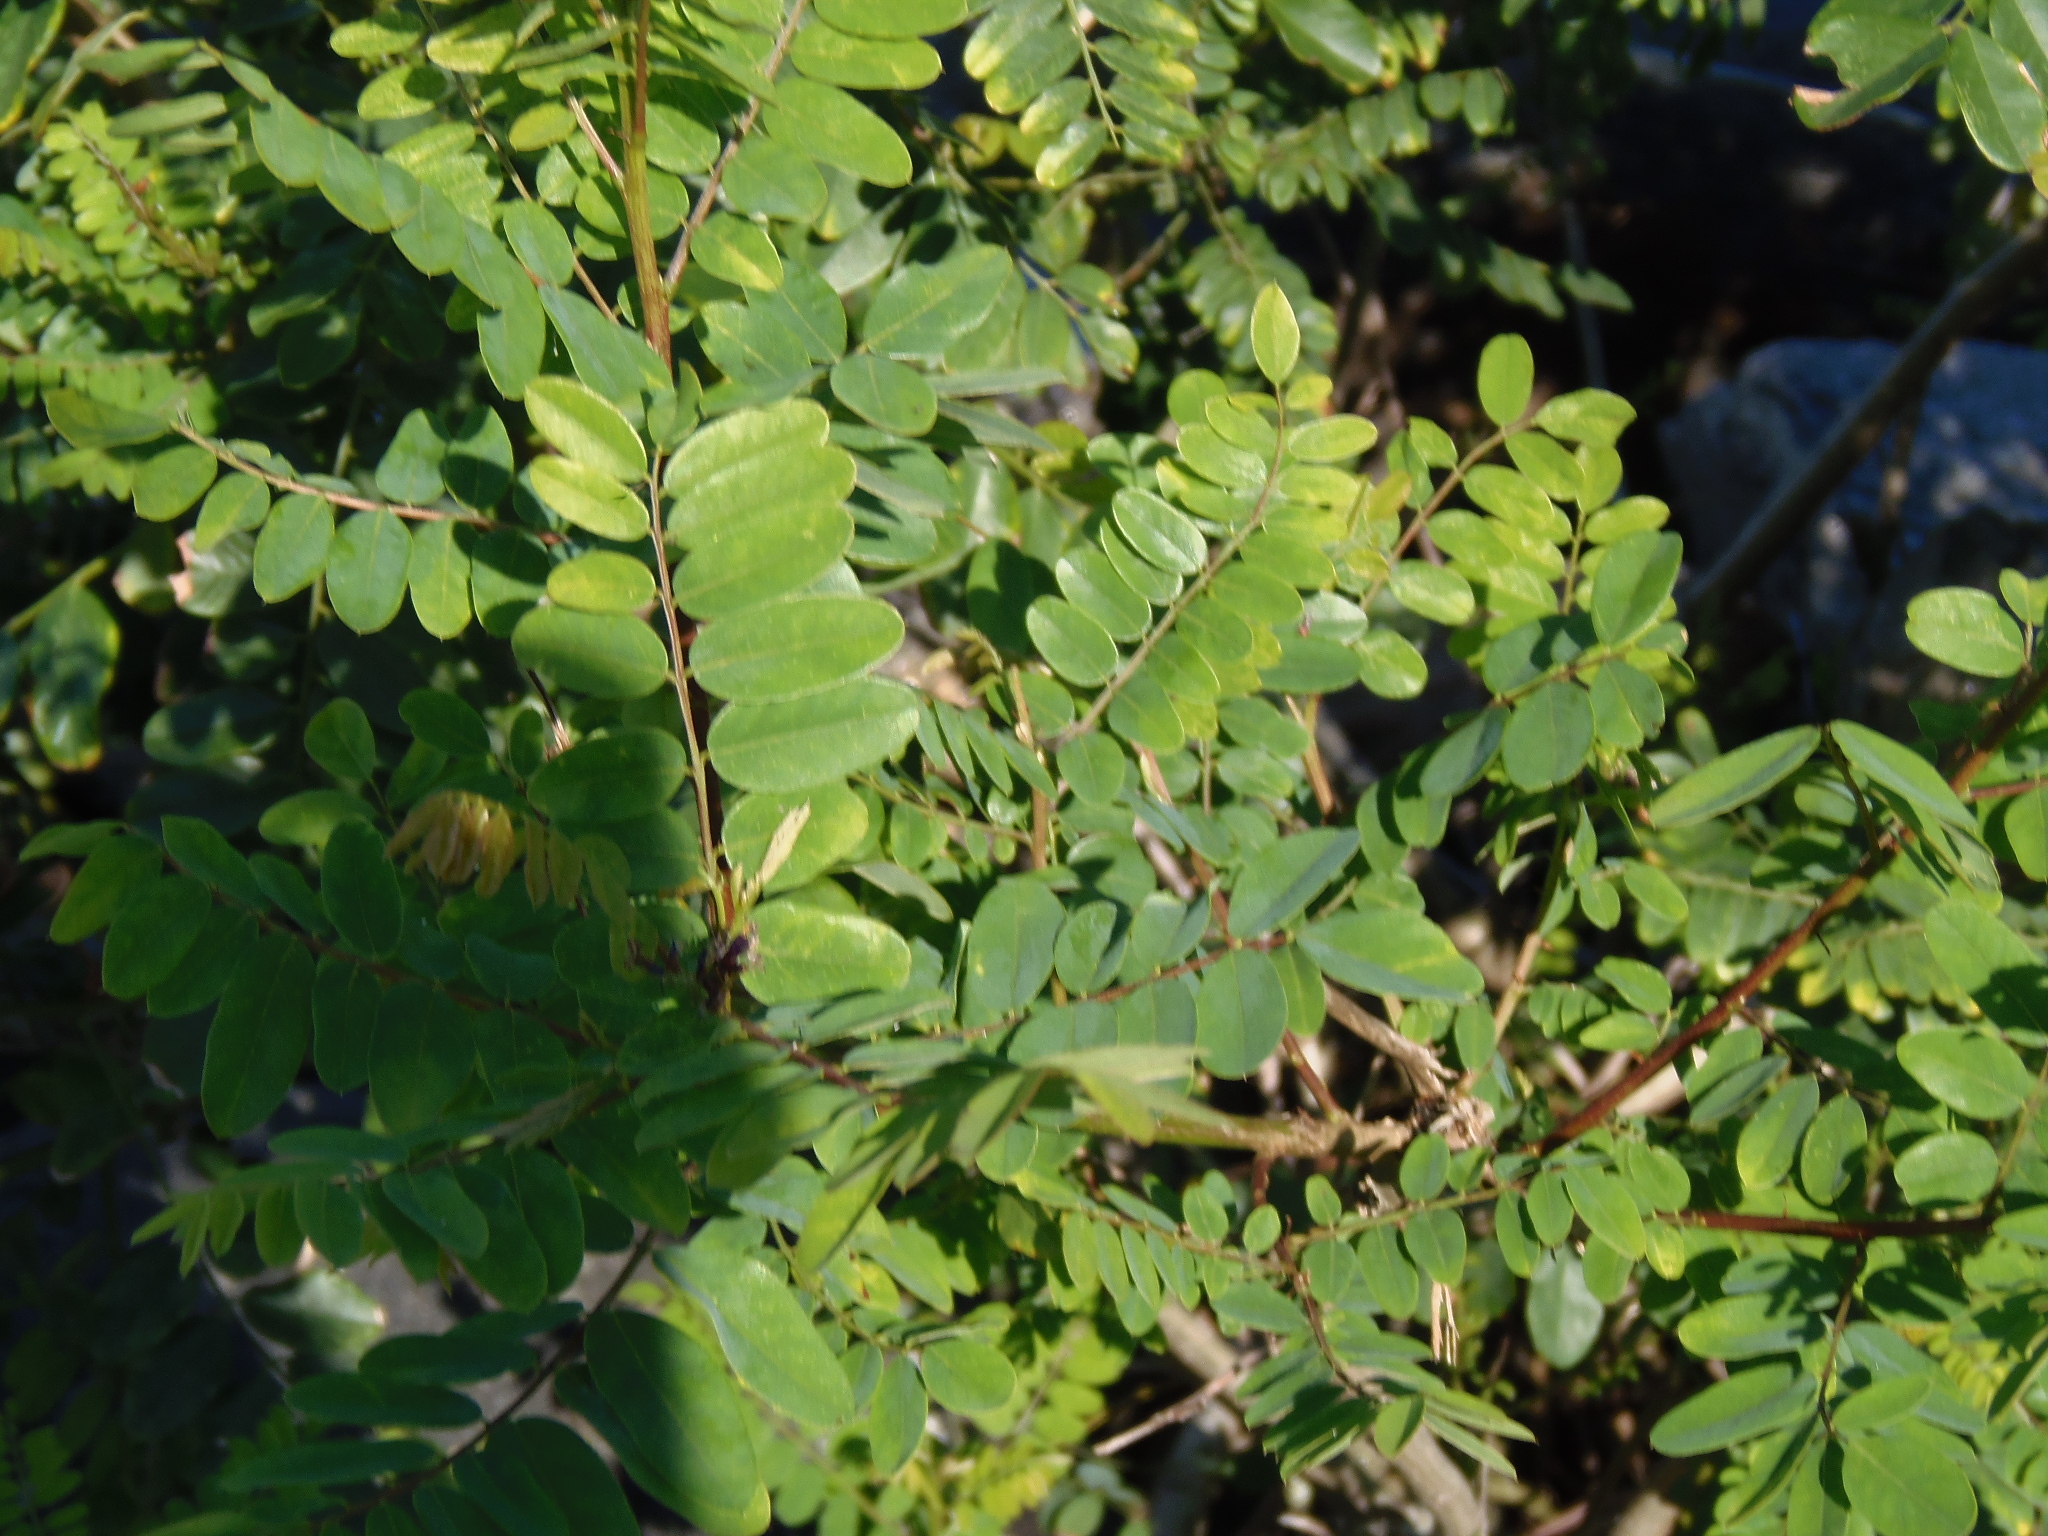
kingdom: Plantae
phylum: Tracheophyta
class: Magnoliopsida
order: Fabales
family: Fabaceae
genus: Amorpha
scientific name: Amorpha fruticosa
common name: False indigo
